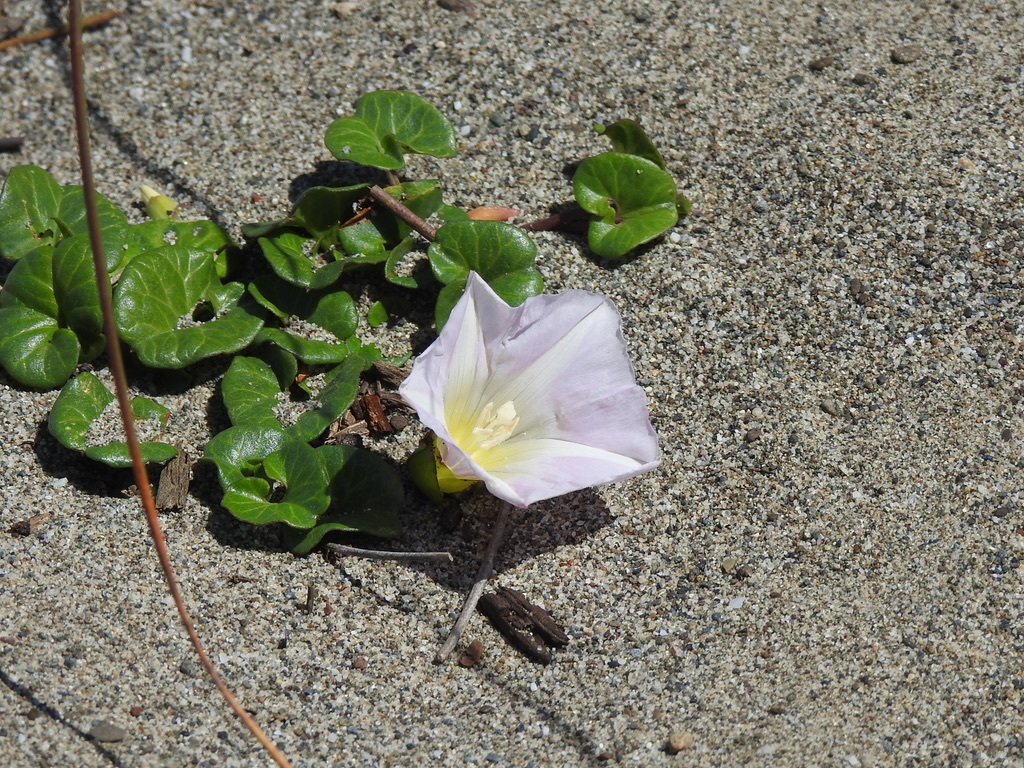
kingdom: Plantae
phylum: Tracheophyta
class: Magnoliopsida
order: Solanales
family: Convolvulaceae
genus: Calystegia
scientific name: Calystegia soldanella
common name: Sea bindweed
